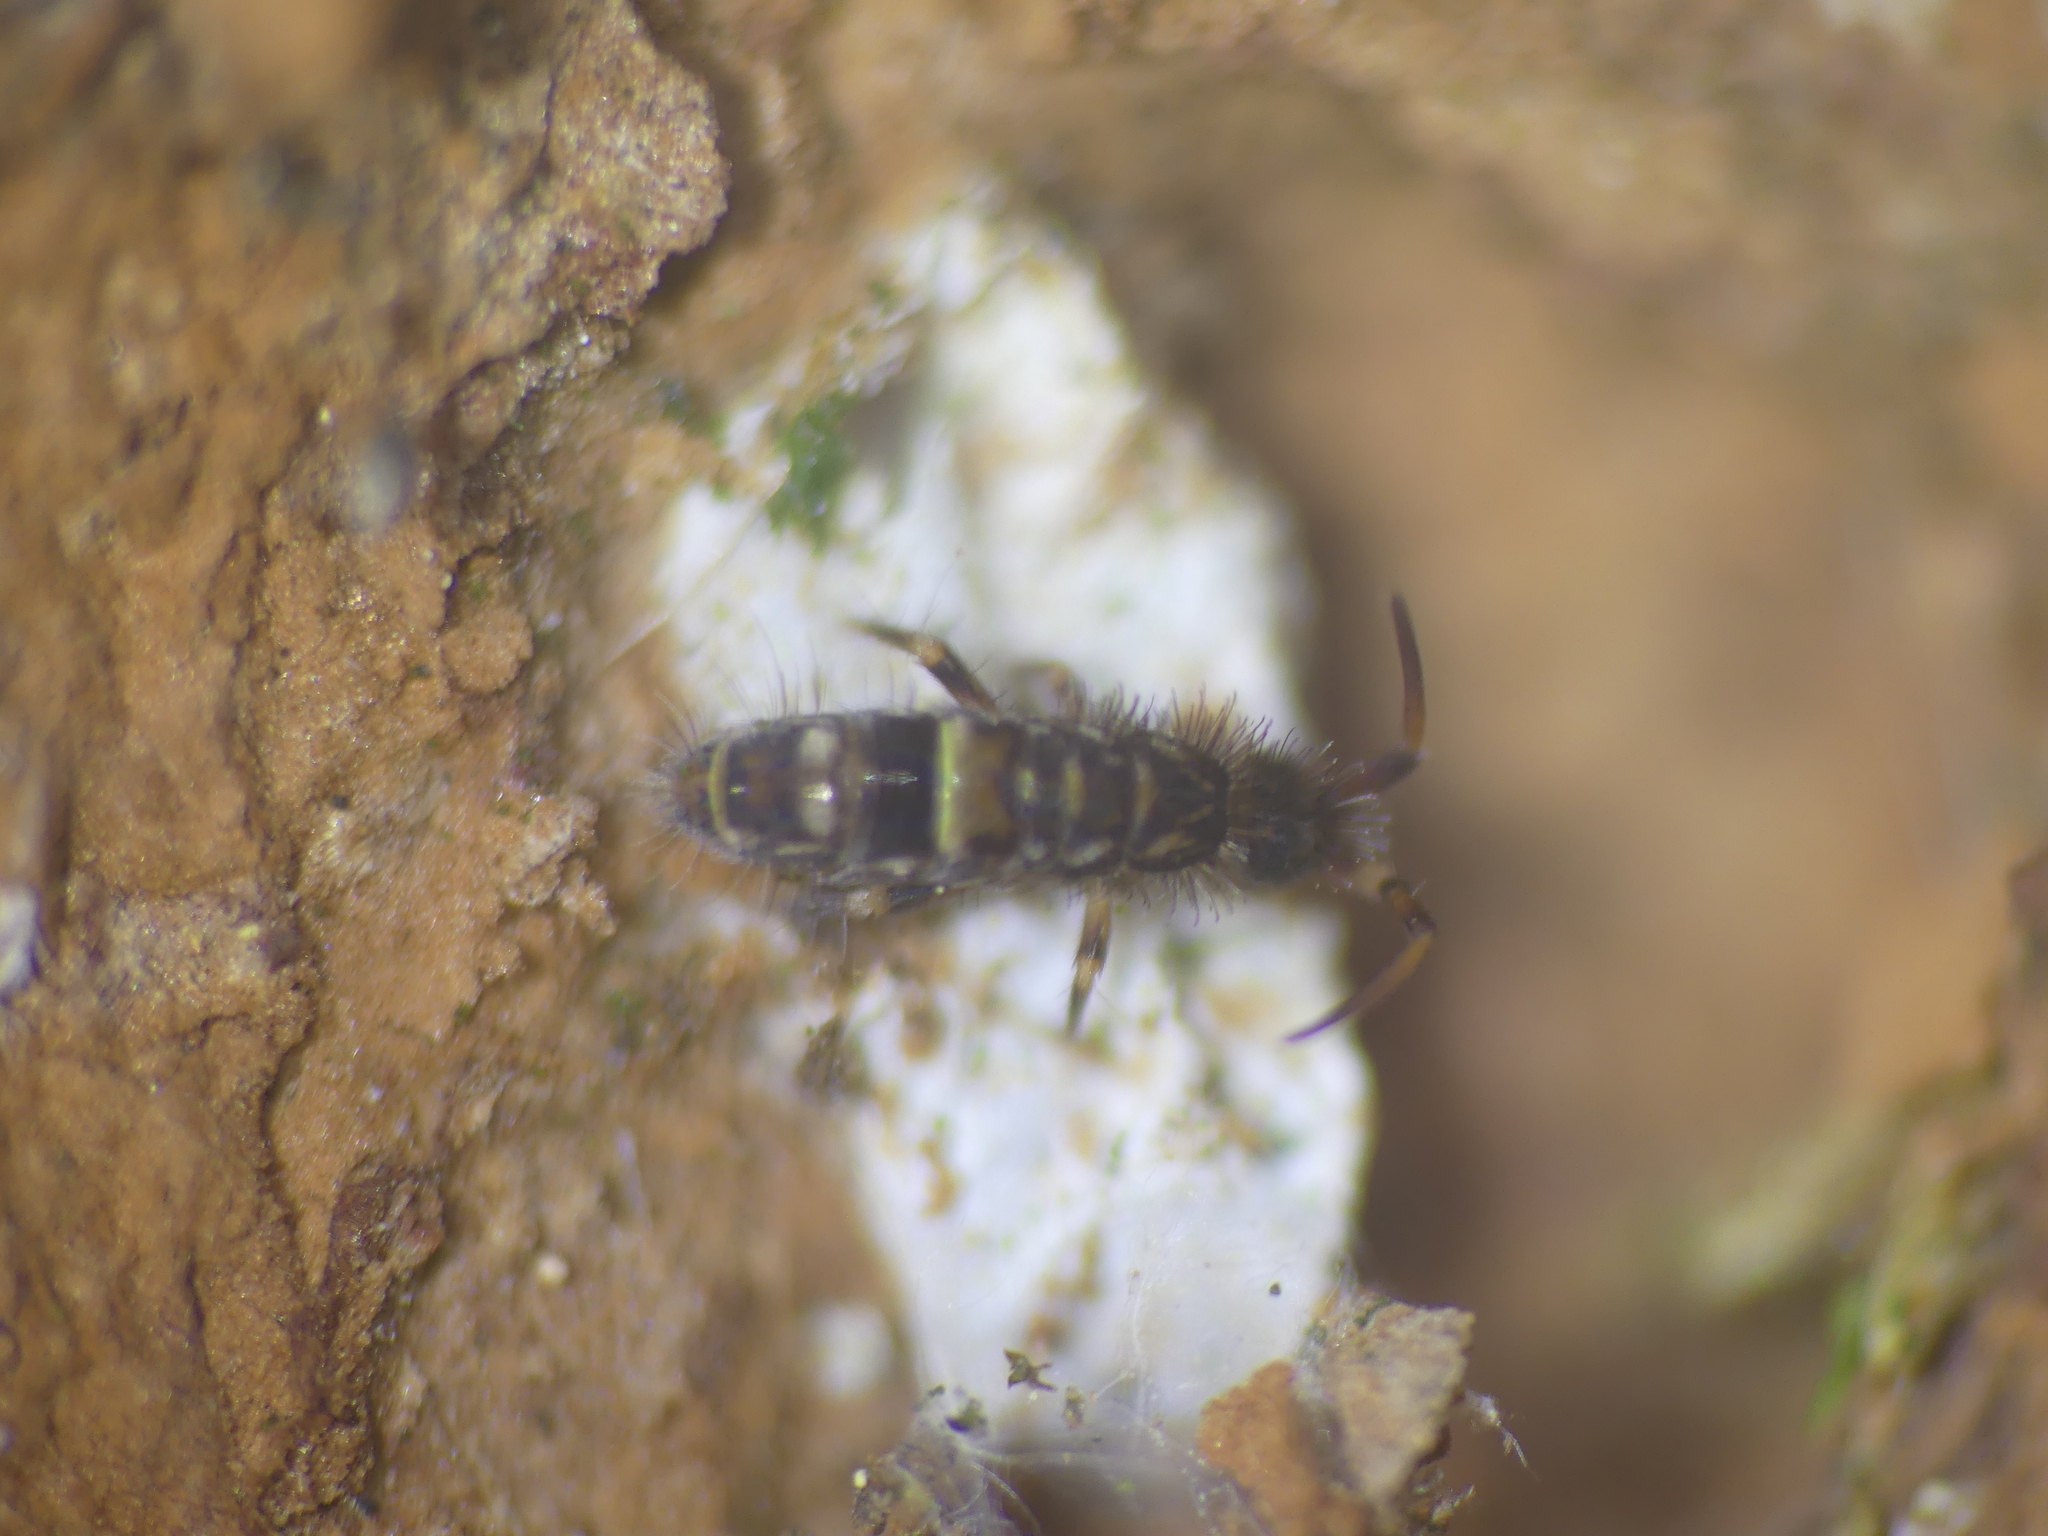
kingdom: Animalia
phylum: Arthropoda
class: Collembola
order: Entomobryomorpha
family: Orchesellidae
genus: Orchesella
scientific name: Orchesella cincta
